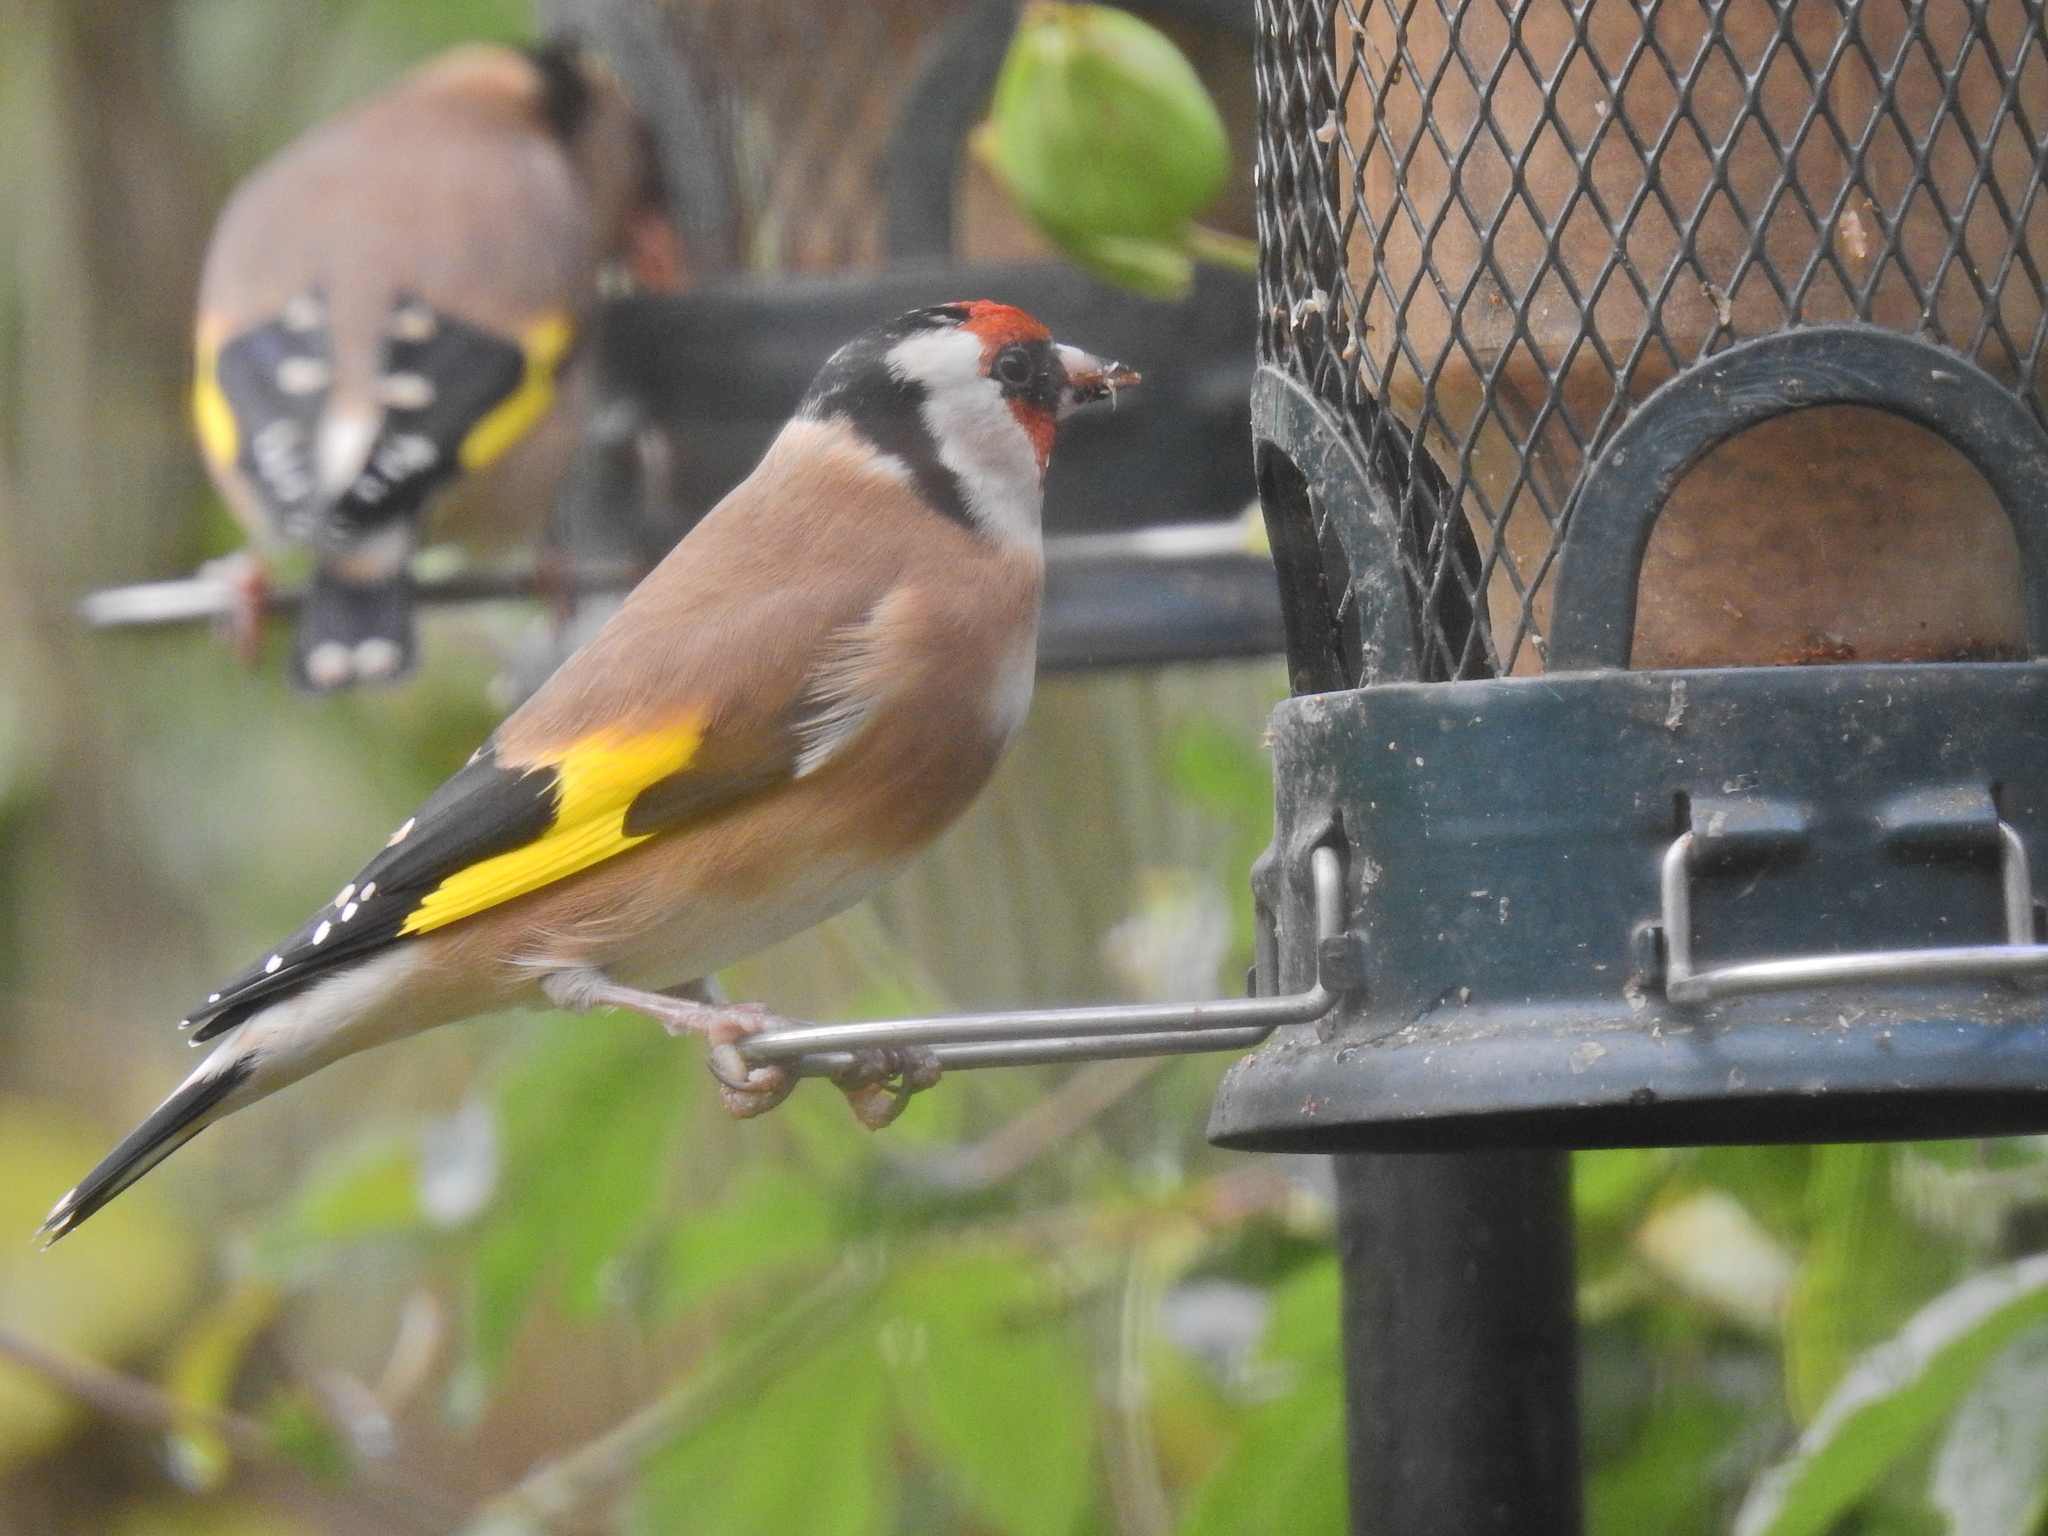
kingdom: Animalia
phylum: Chordata
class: Aves
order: Passeriformes
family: Fringillidae
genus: Carduelis
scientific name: Carduelis carduelis
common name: European goldfinch
